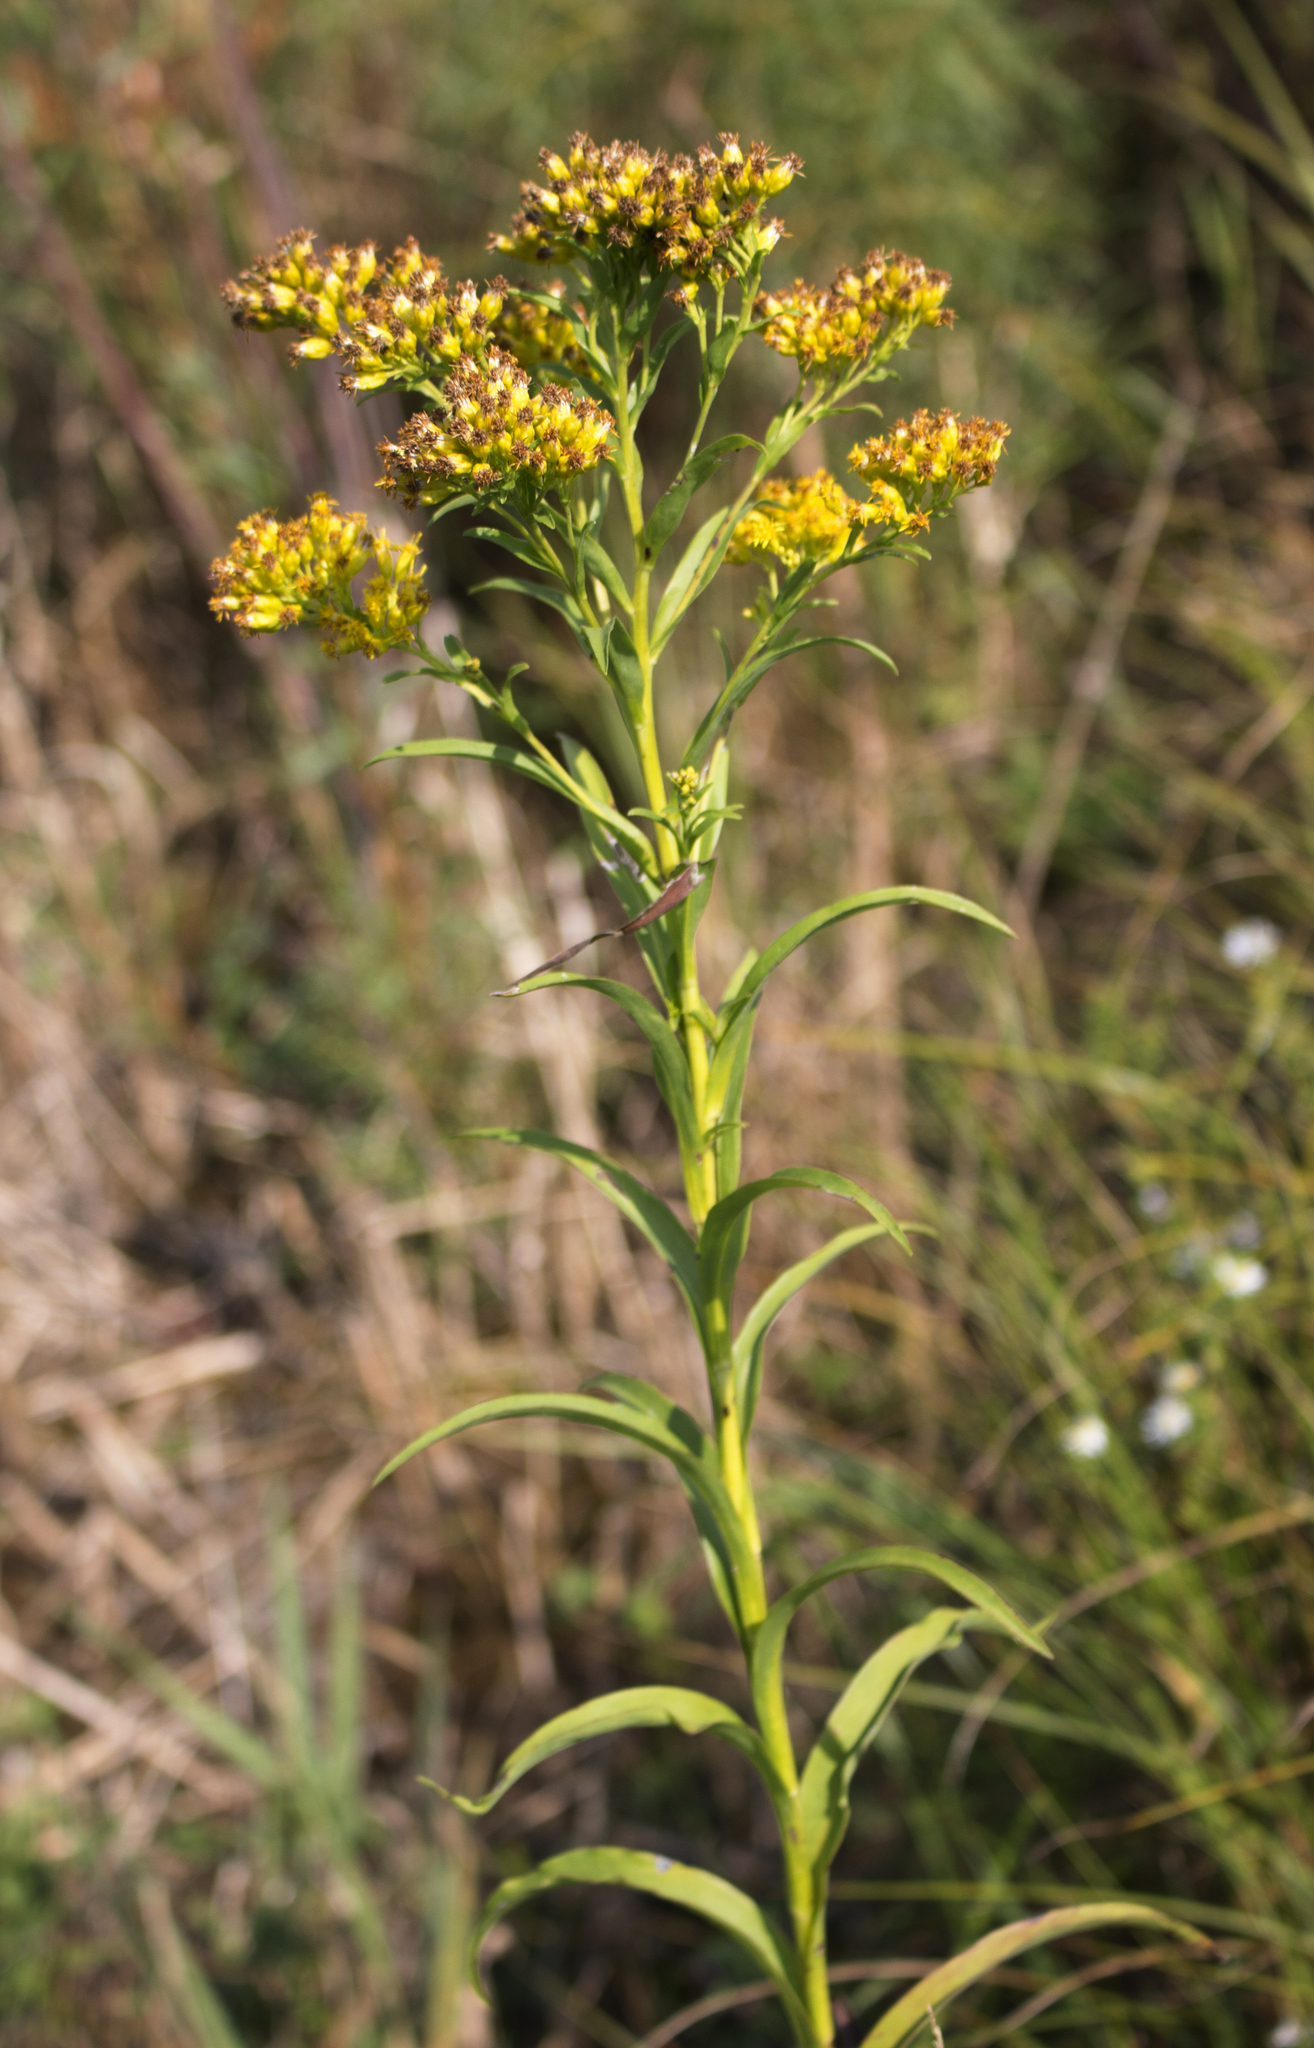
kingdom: Plantae
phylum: Tracheophyta
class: Magnoliopsida
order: Asterales
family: Asteraceae
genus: Solidago
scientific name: Solidago riddellii
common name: Riddell's goldenrod
